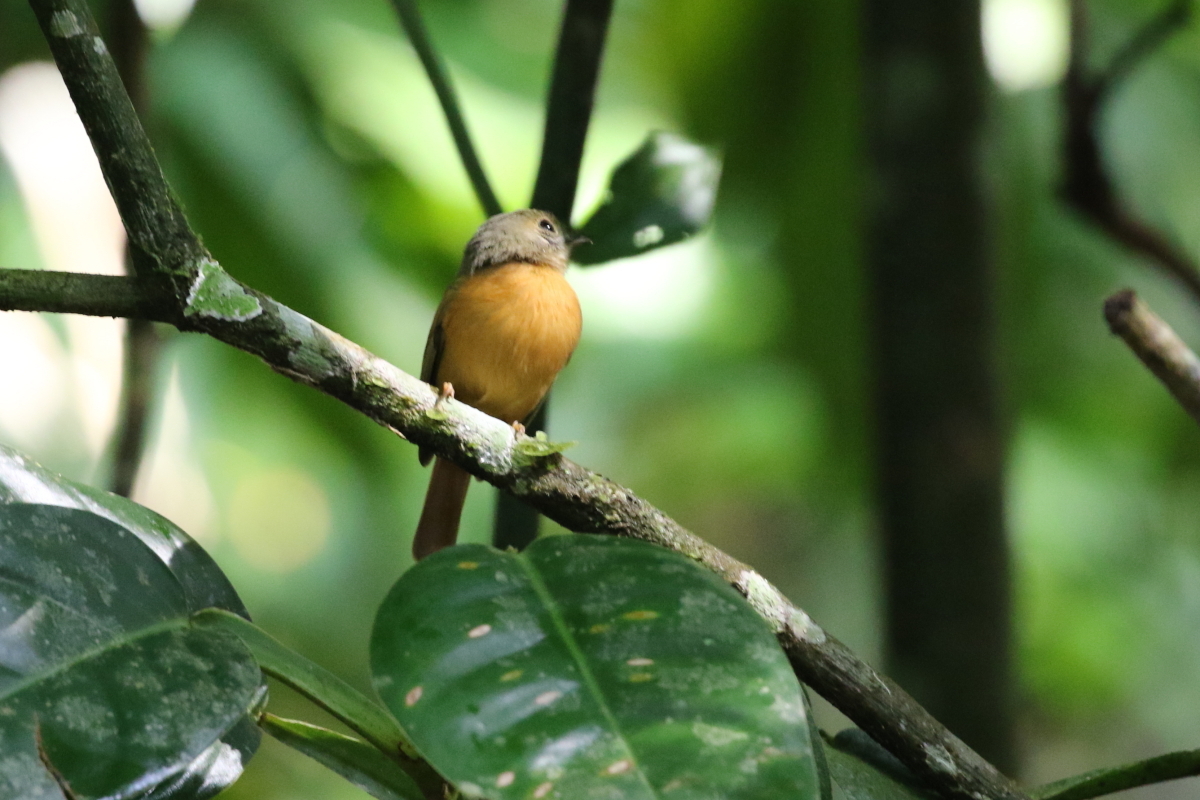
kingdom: Animalia
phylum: Chordata
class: Aves
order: Passeriformes
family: Tyrannidae
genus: Terenotriccus
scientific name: Terenotriccus erythrurus
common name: Ruddy-tailed flycatcher
